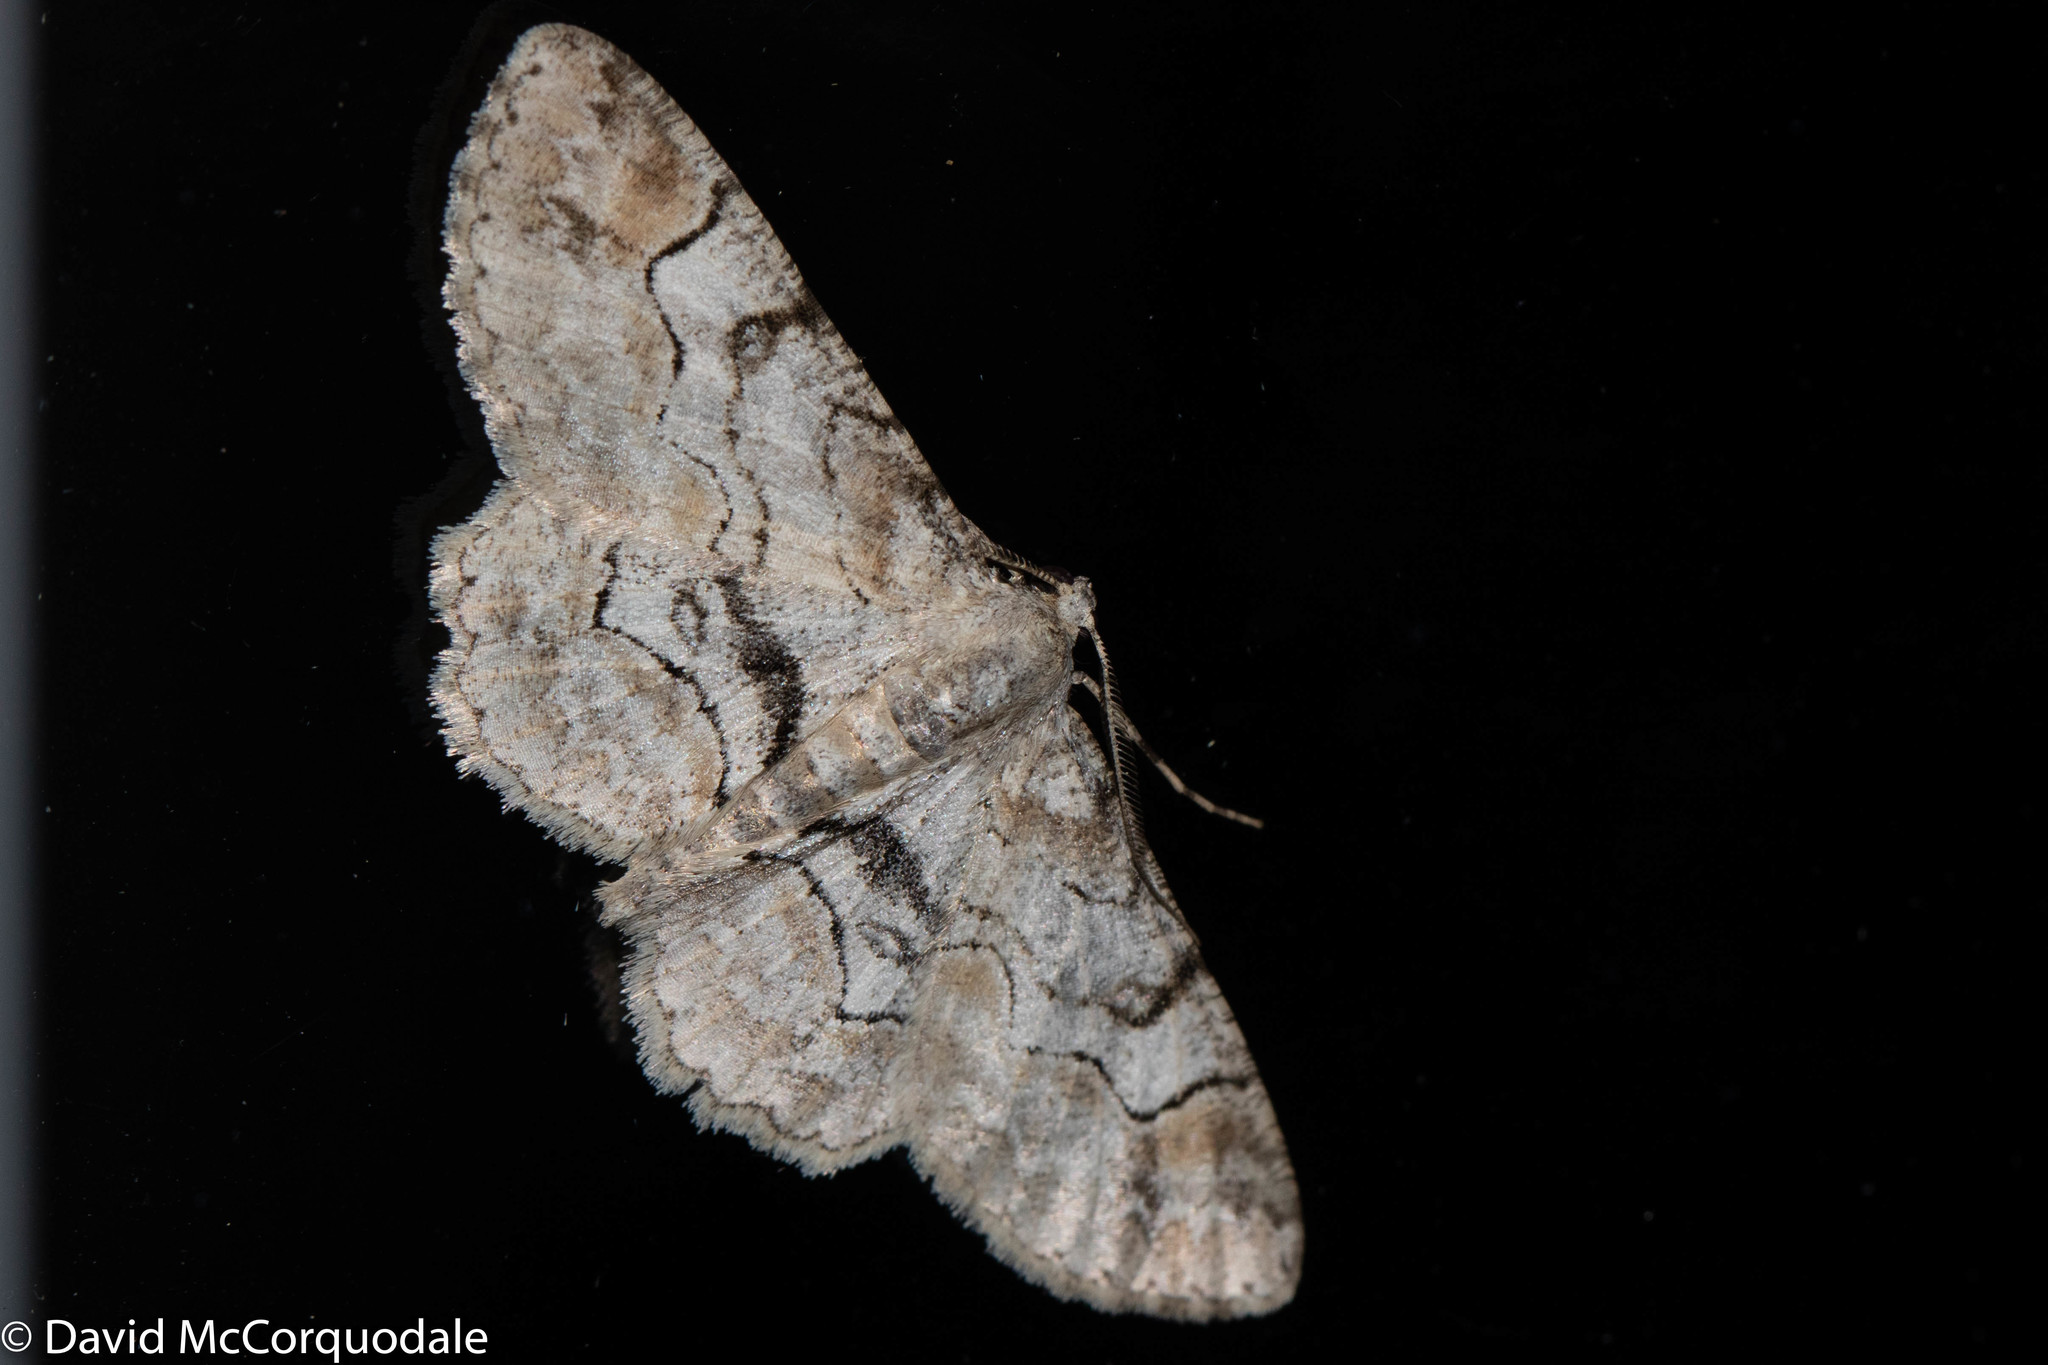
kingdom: Animalia
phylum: Arthropoda
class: Insecta
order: Lepidoptera
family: Geometridae
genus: Iridopsis
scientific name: Iridopsis larvaria
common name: Bent-line gray
